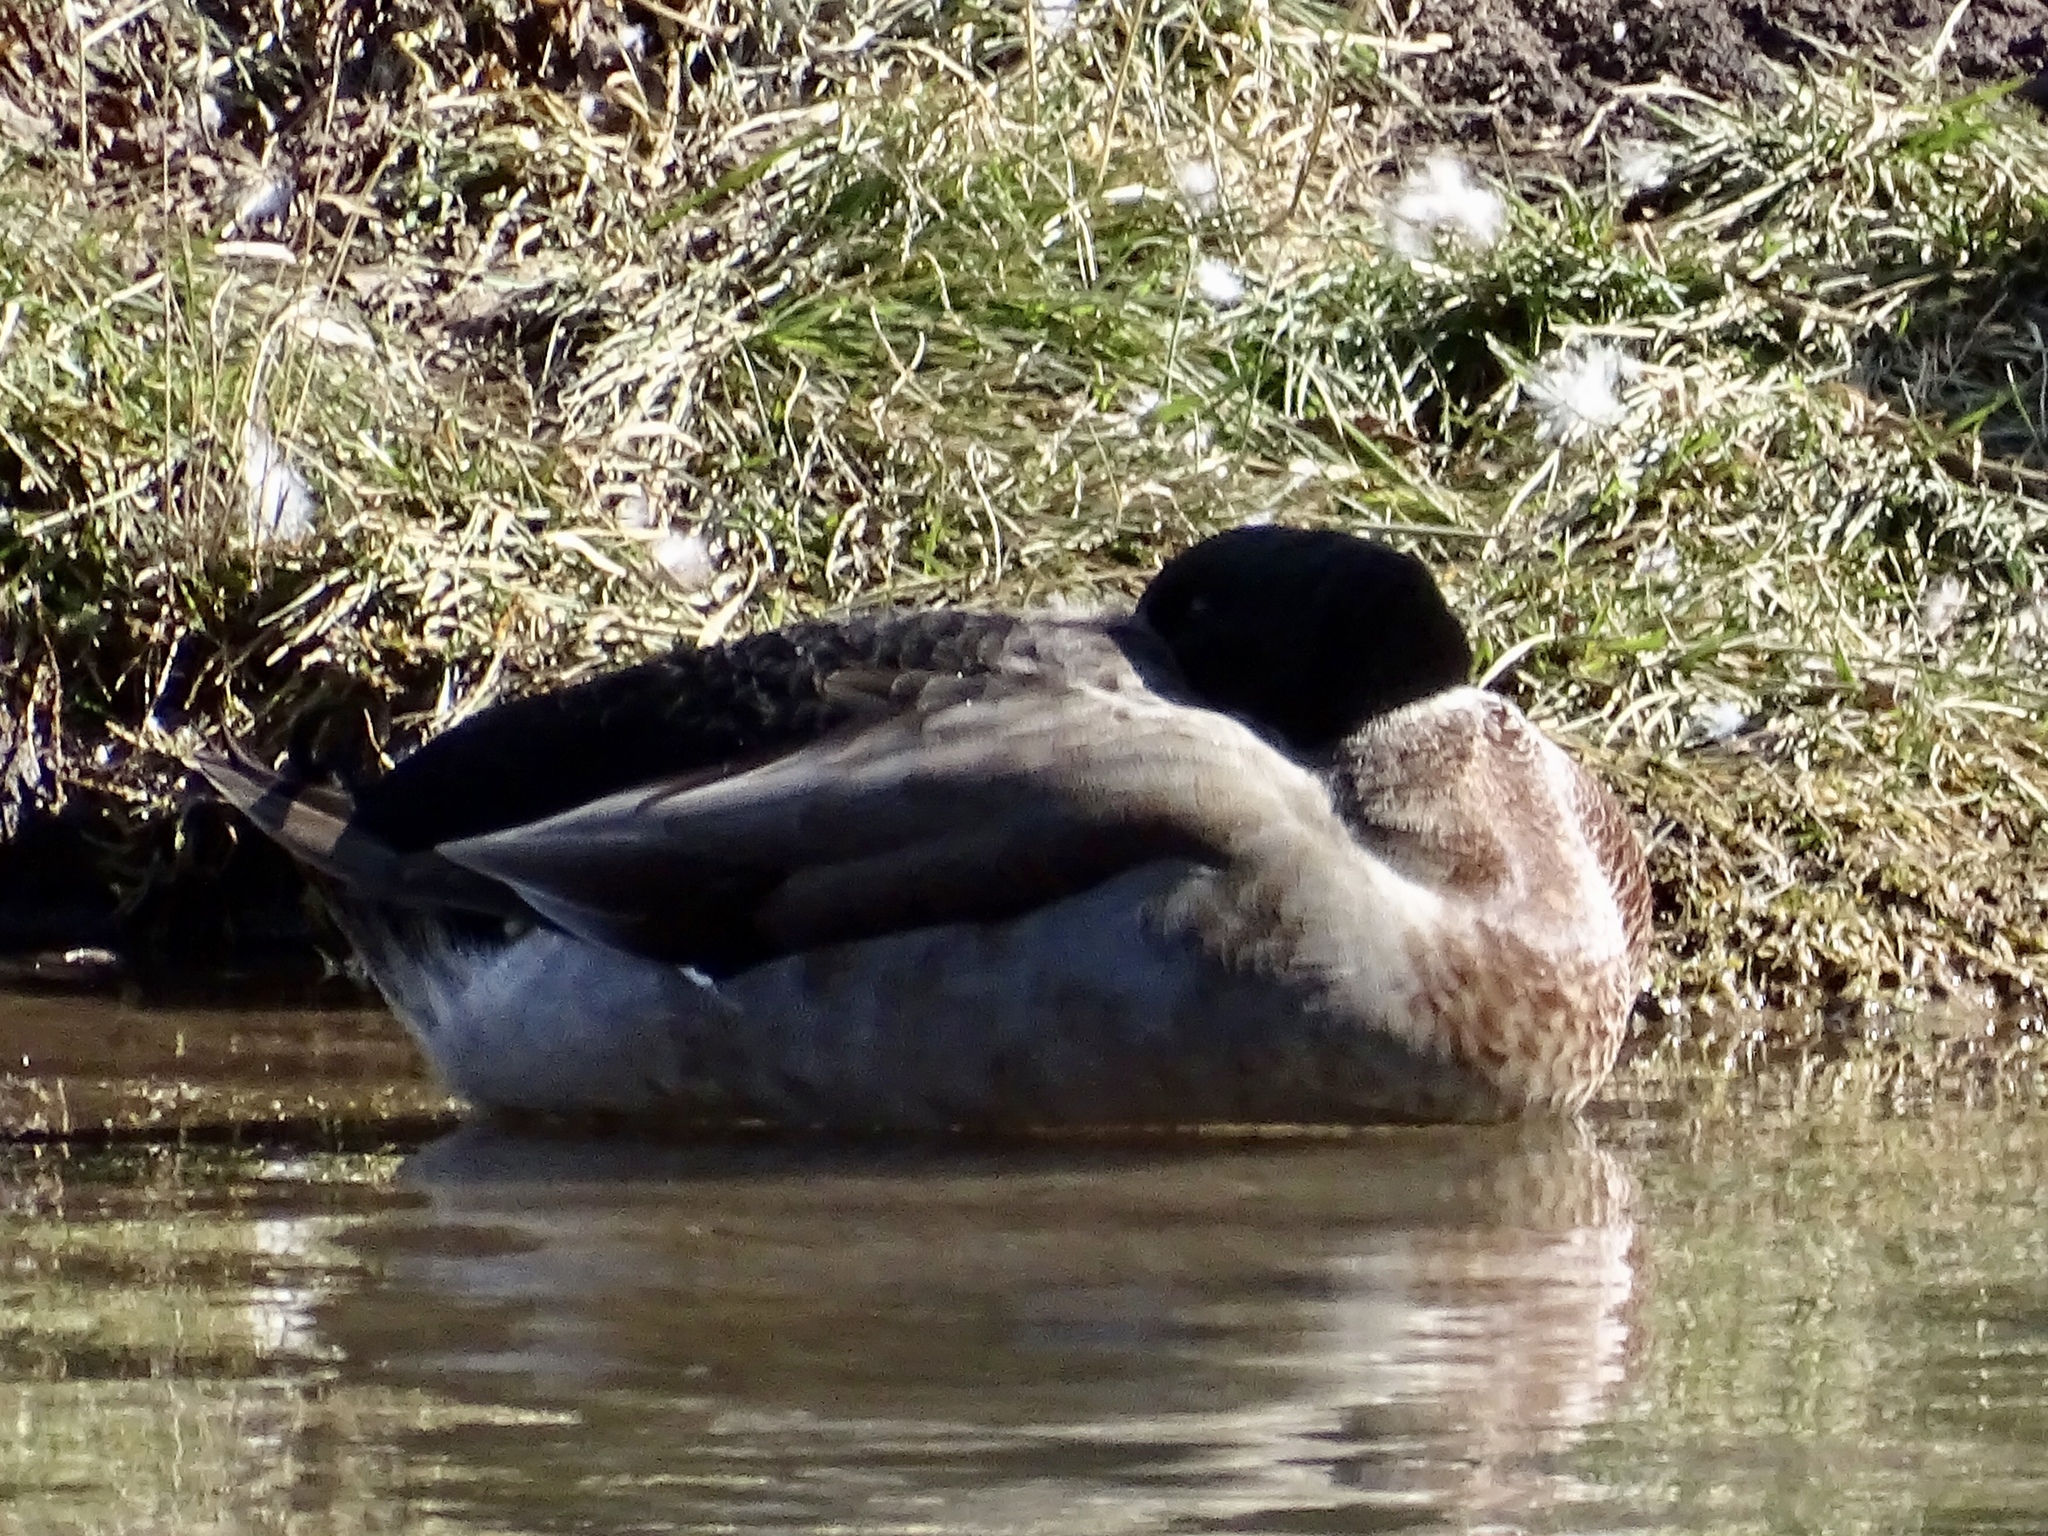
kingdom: Animalia
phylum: Chordata
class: Aves
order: Anseriformes
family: Anatidae
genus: Anas
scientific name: Anas platyrhynchos
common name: Mallard
